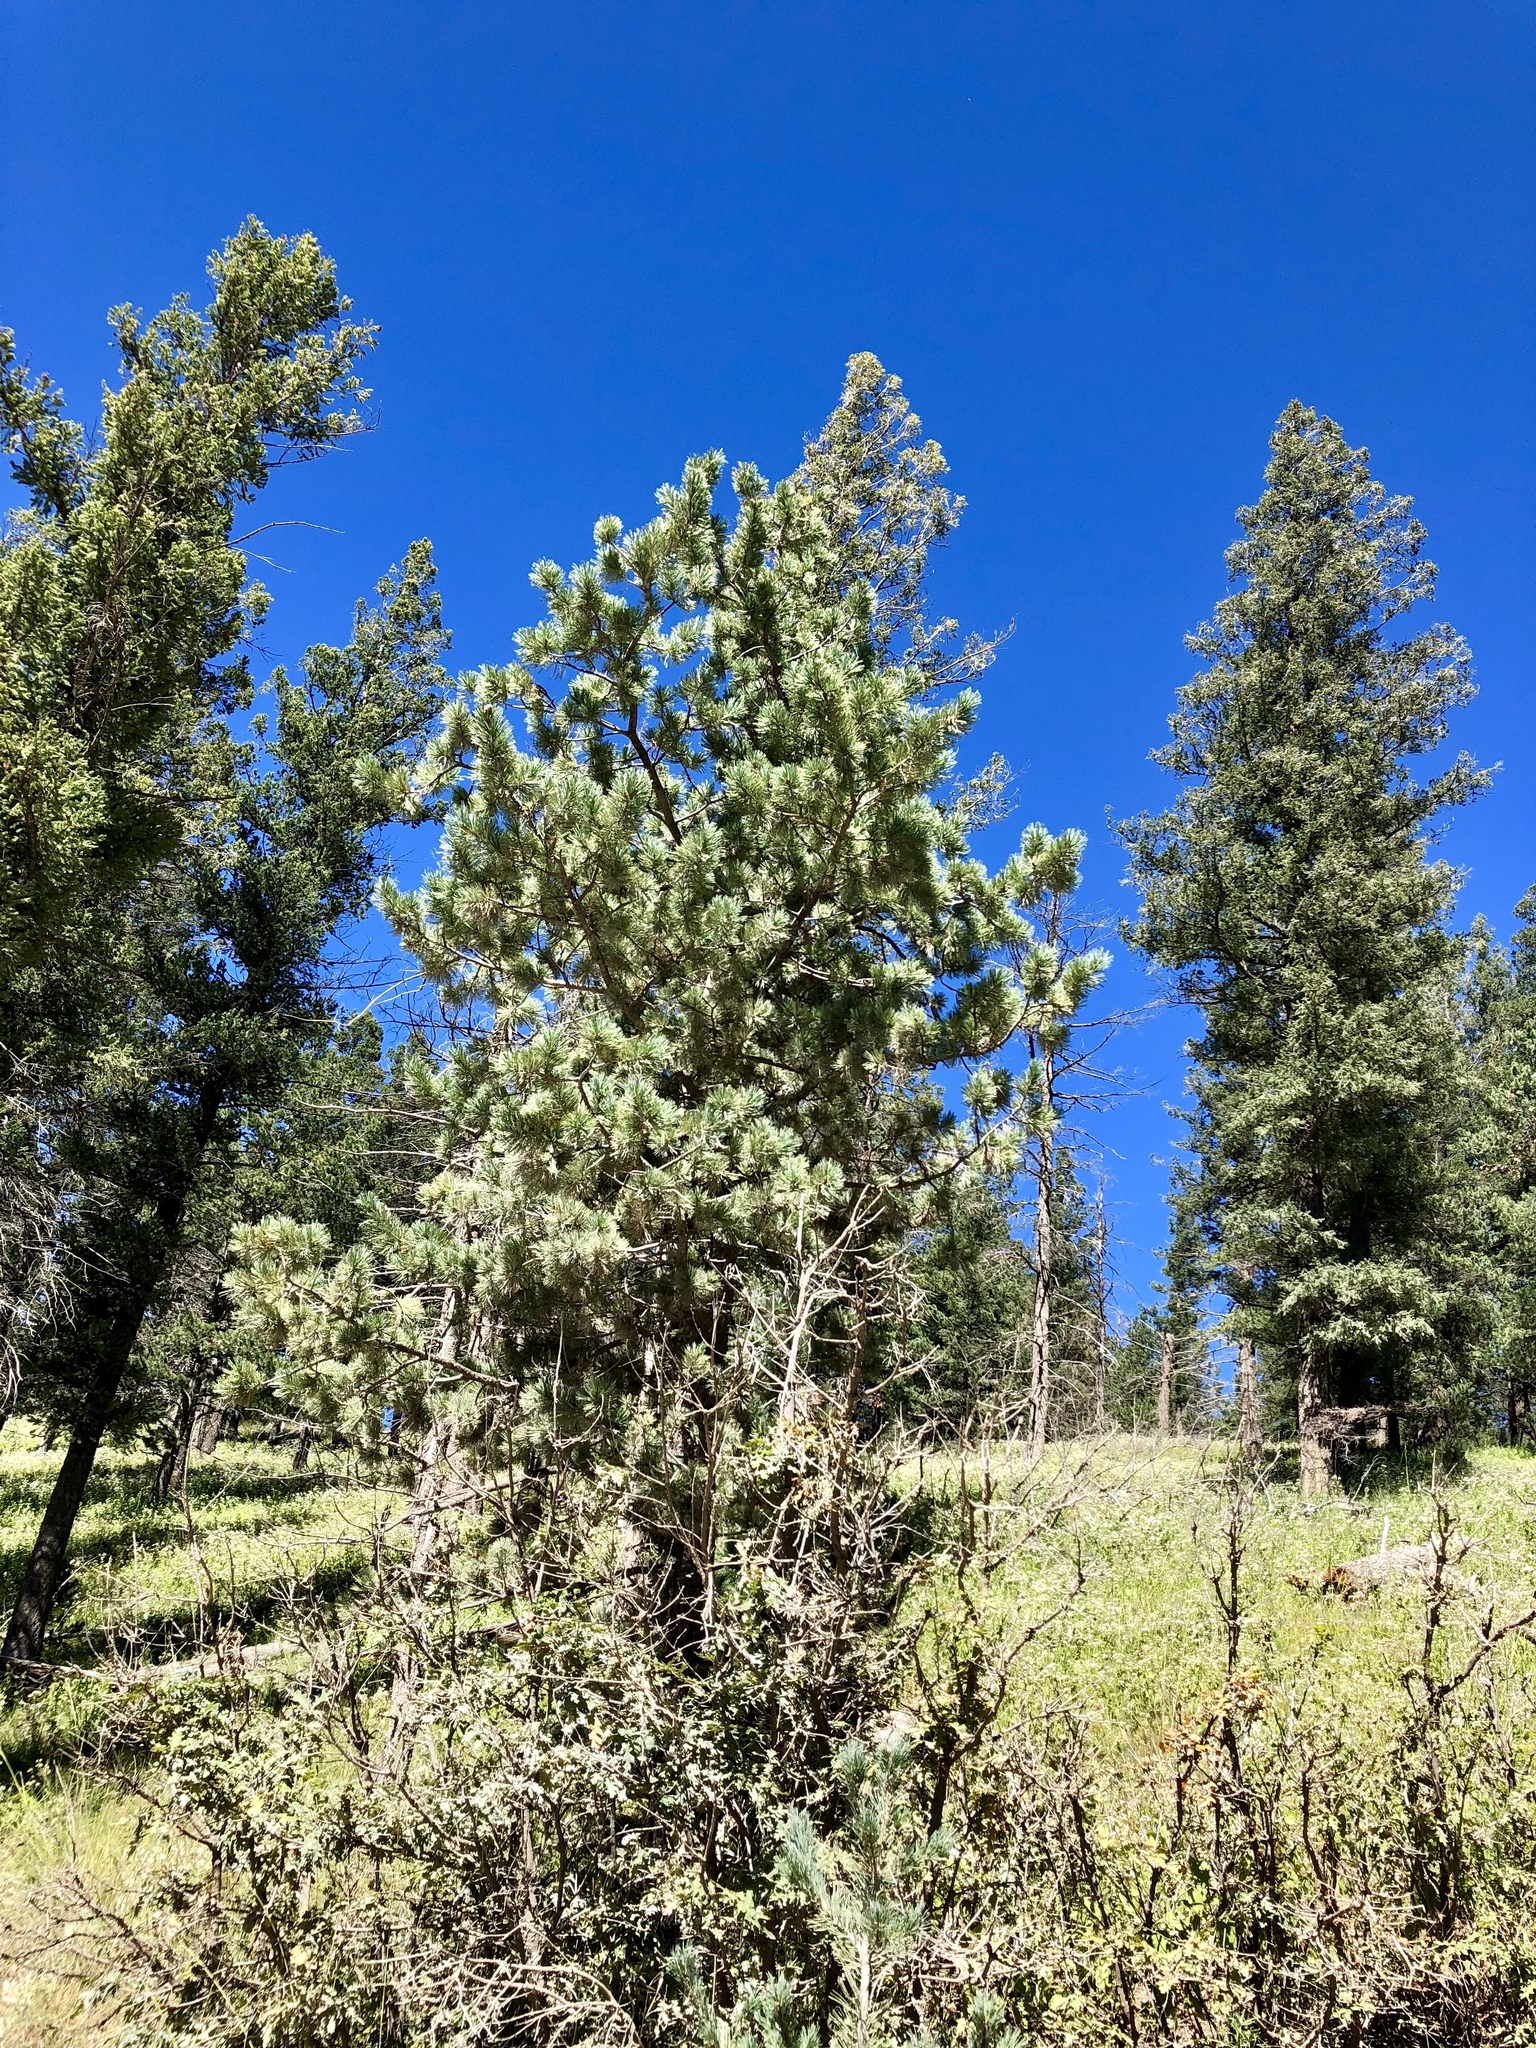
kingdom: Plantae
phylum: Tracheophyta
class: Pinopsida
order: Pinales
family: Pinaceae
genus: Pinus
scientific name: Pinus strobiformis
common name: Southwestern white pine
